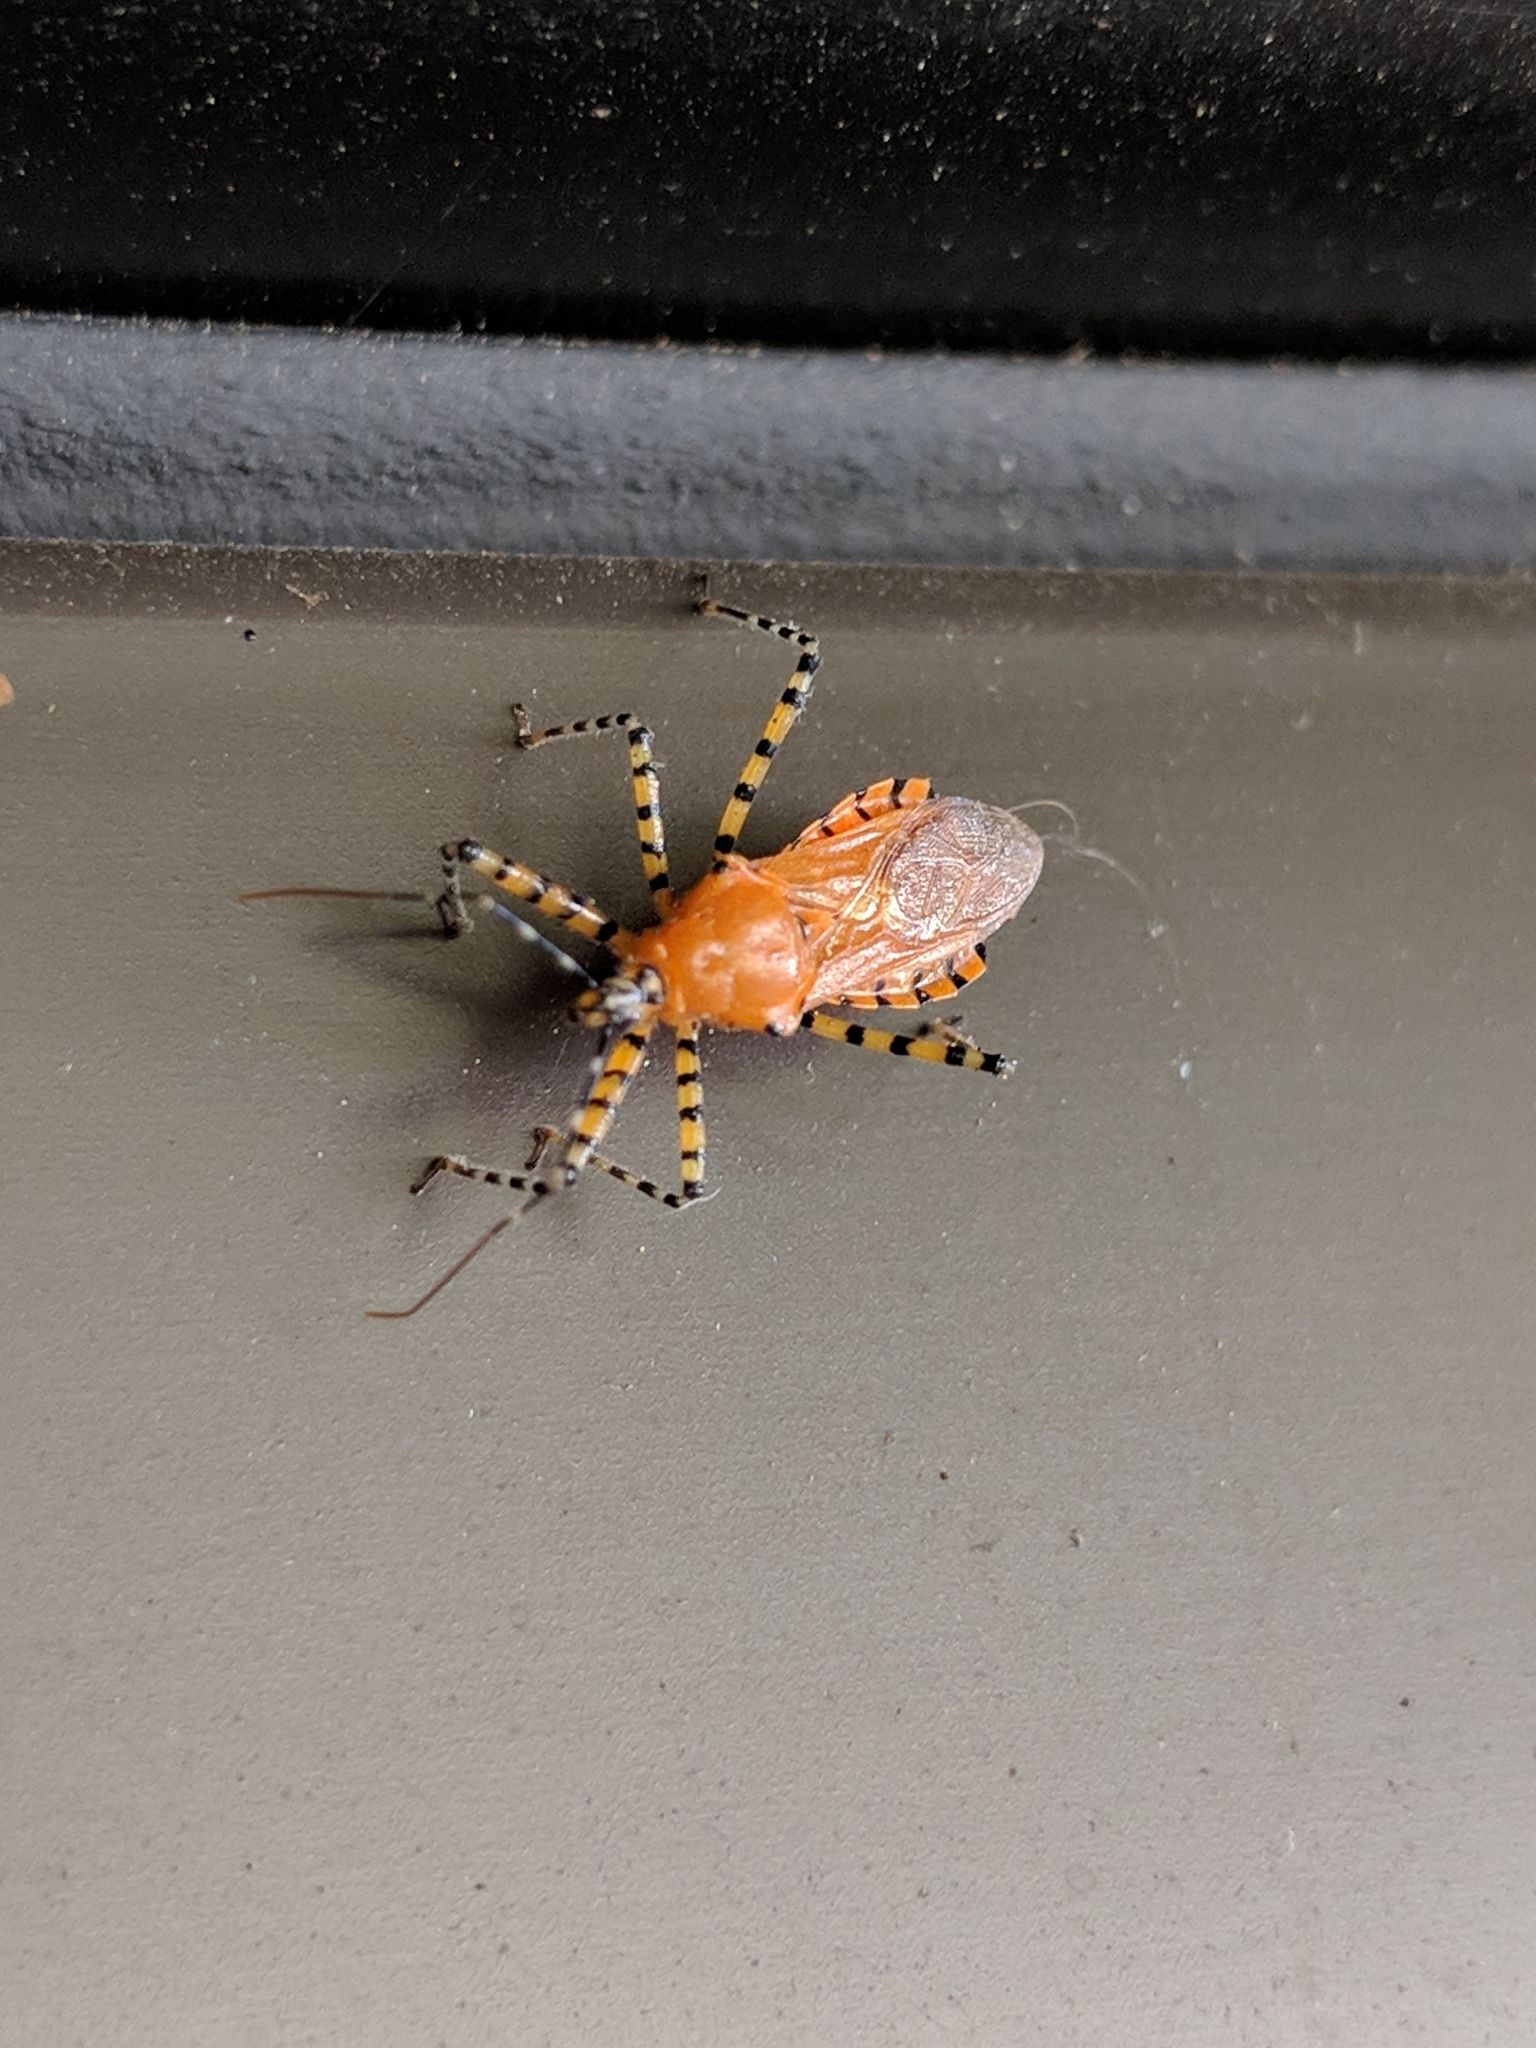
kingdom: Animalia
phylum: Arthropoda
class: Insecta
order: Hemiptera
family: Reduviidae
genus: Pselliopus
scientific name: Pselliopus barberi
